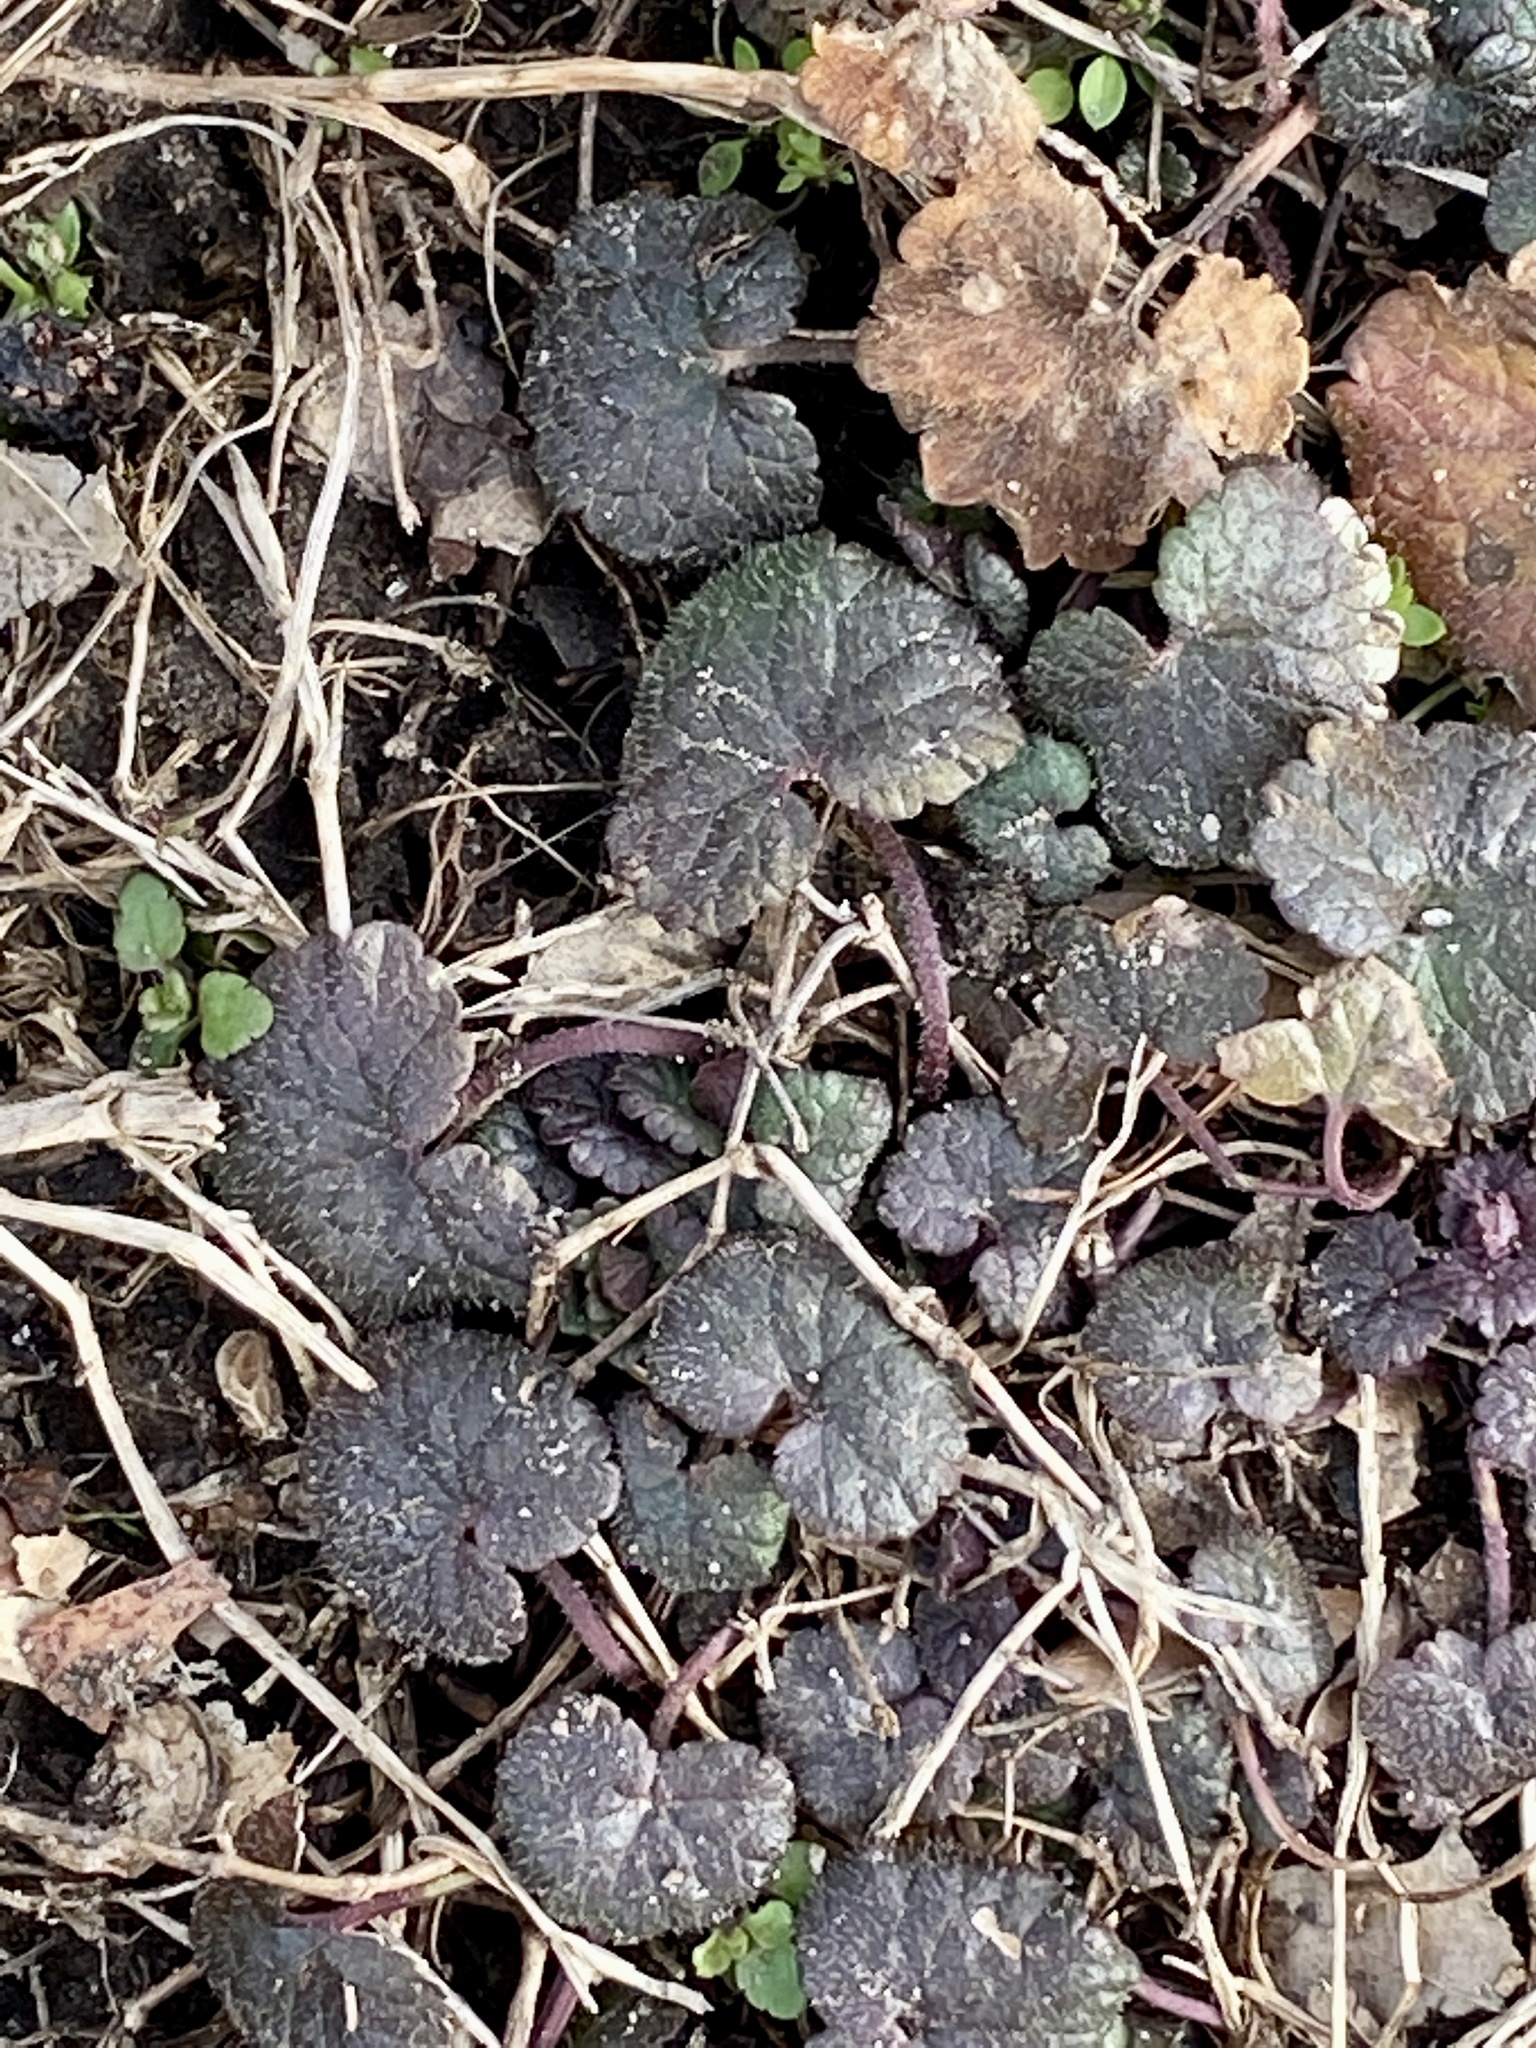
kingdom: Plantae
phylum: Tracheophyta
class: Magnoliopsida
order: Lamiales
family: Lamiaceae
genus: Glechoma
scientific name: Glechoma hederacea
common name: Ground ivy
